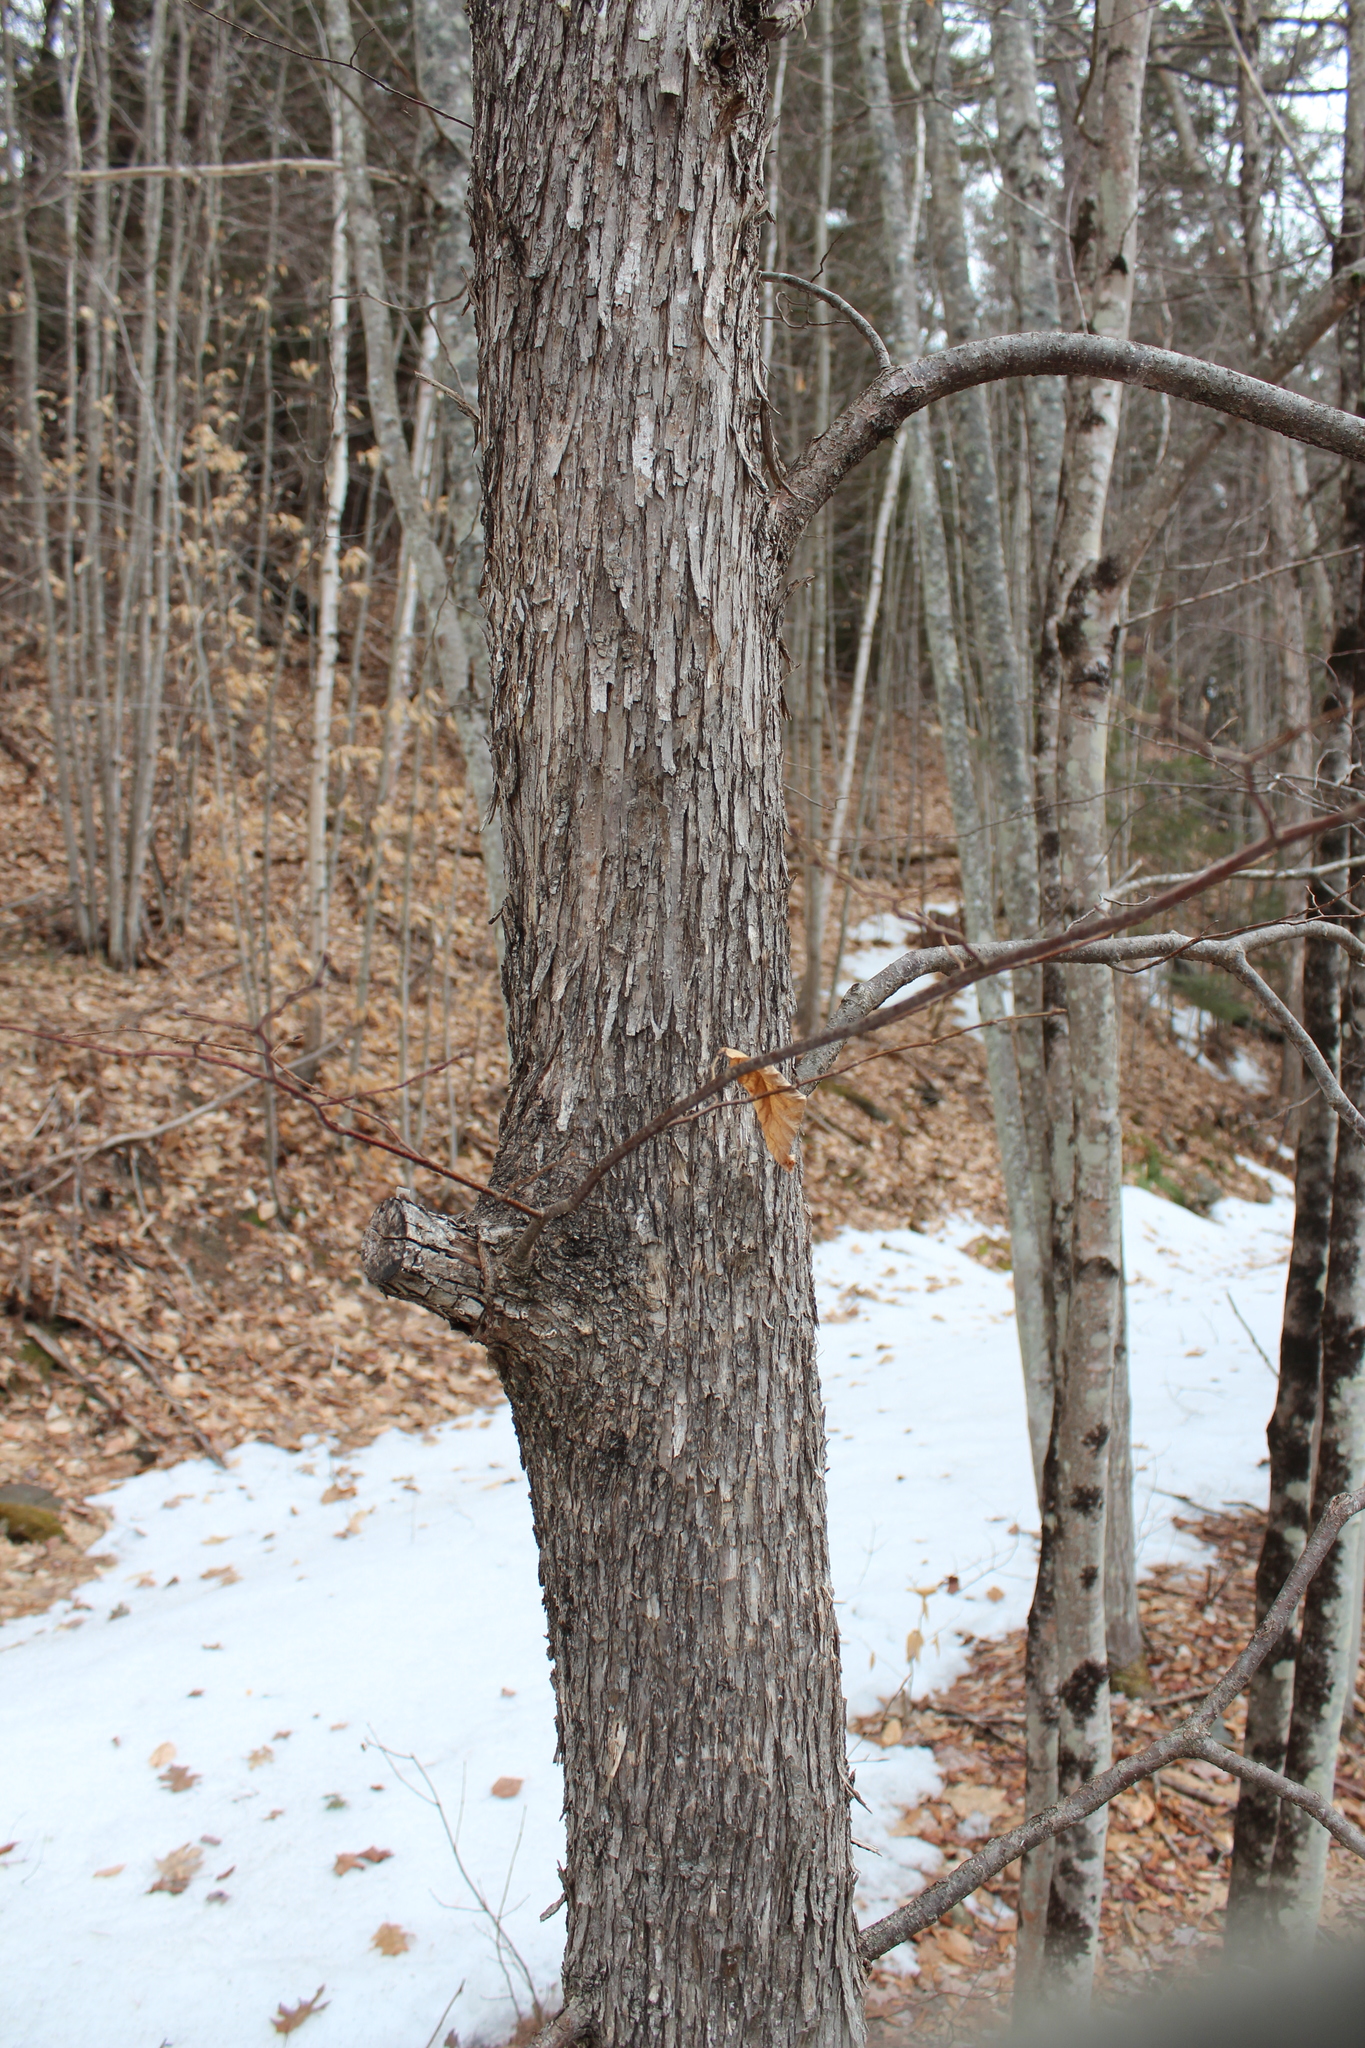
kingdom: Plantae
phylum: Tracheophyta
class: Magnoliopsida
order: Fagales
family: Betulaceae
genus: Ostrya
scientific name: Ostrya virginiana
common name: Ironwood
